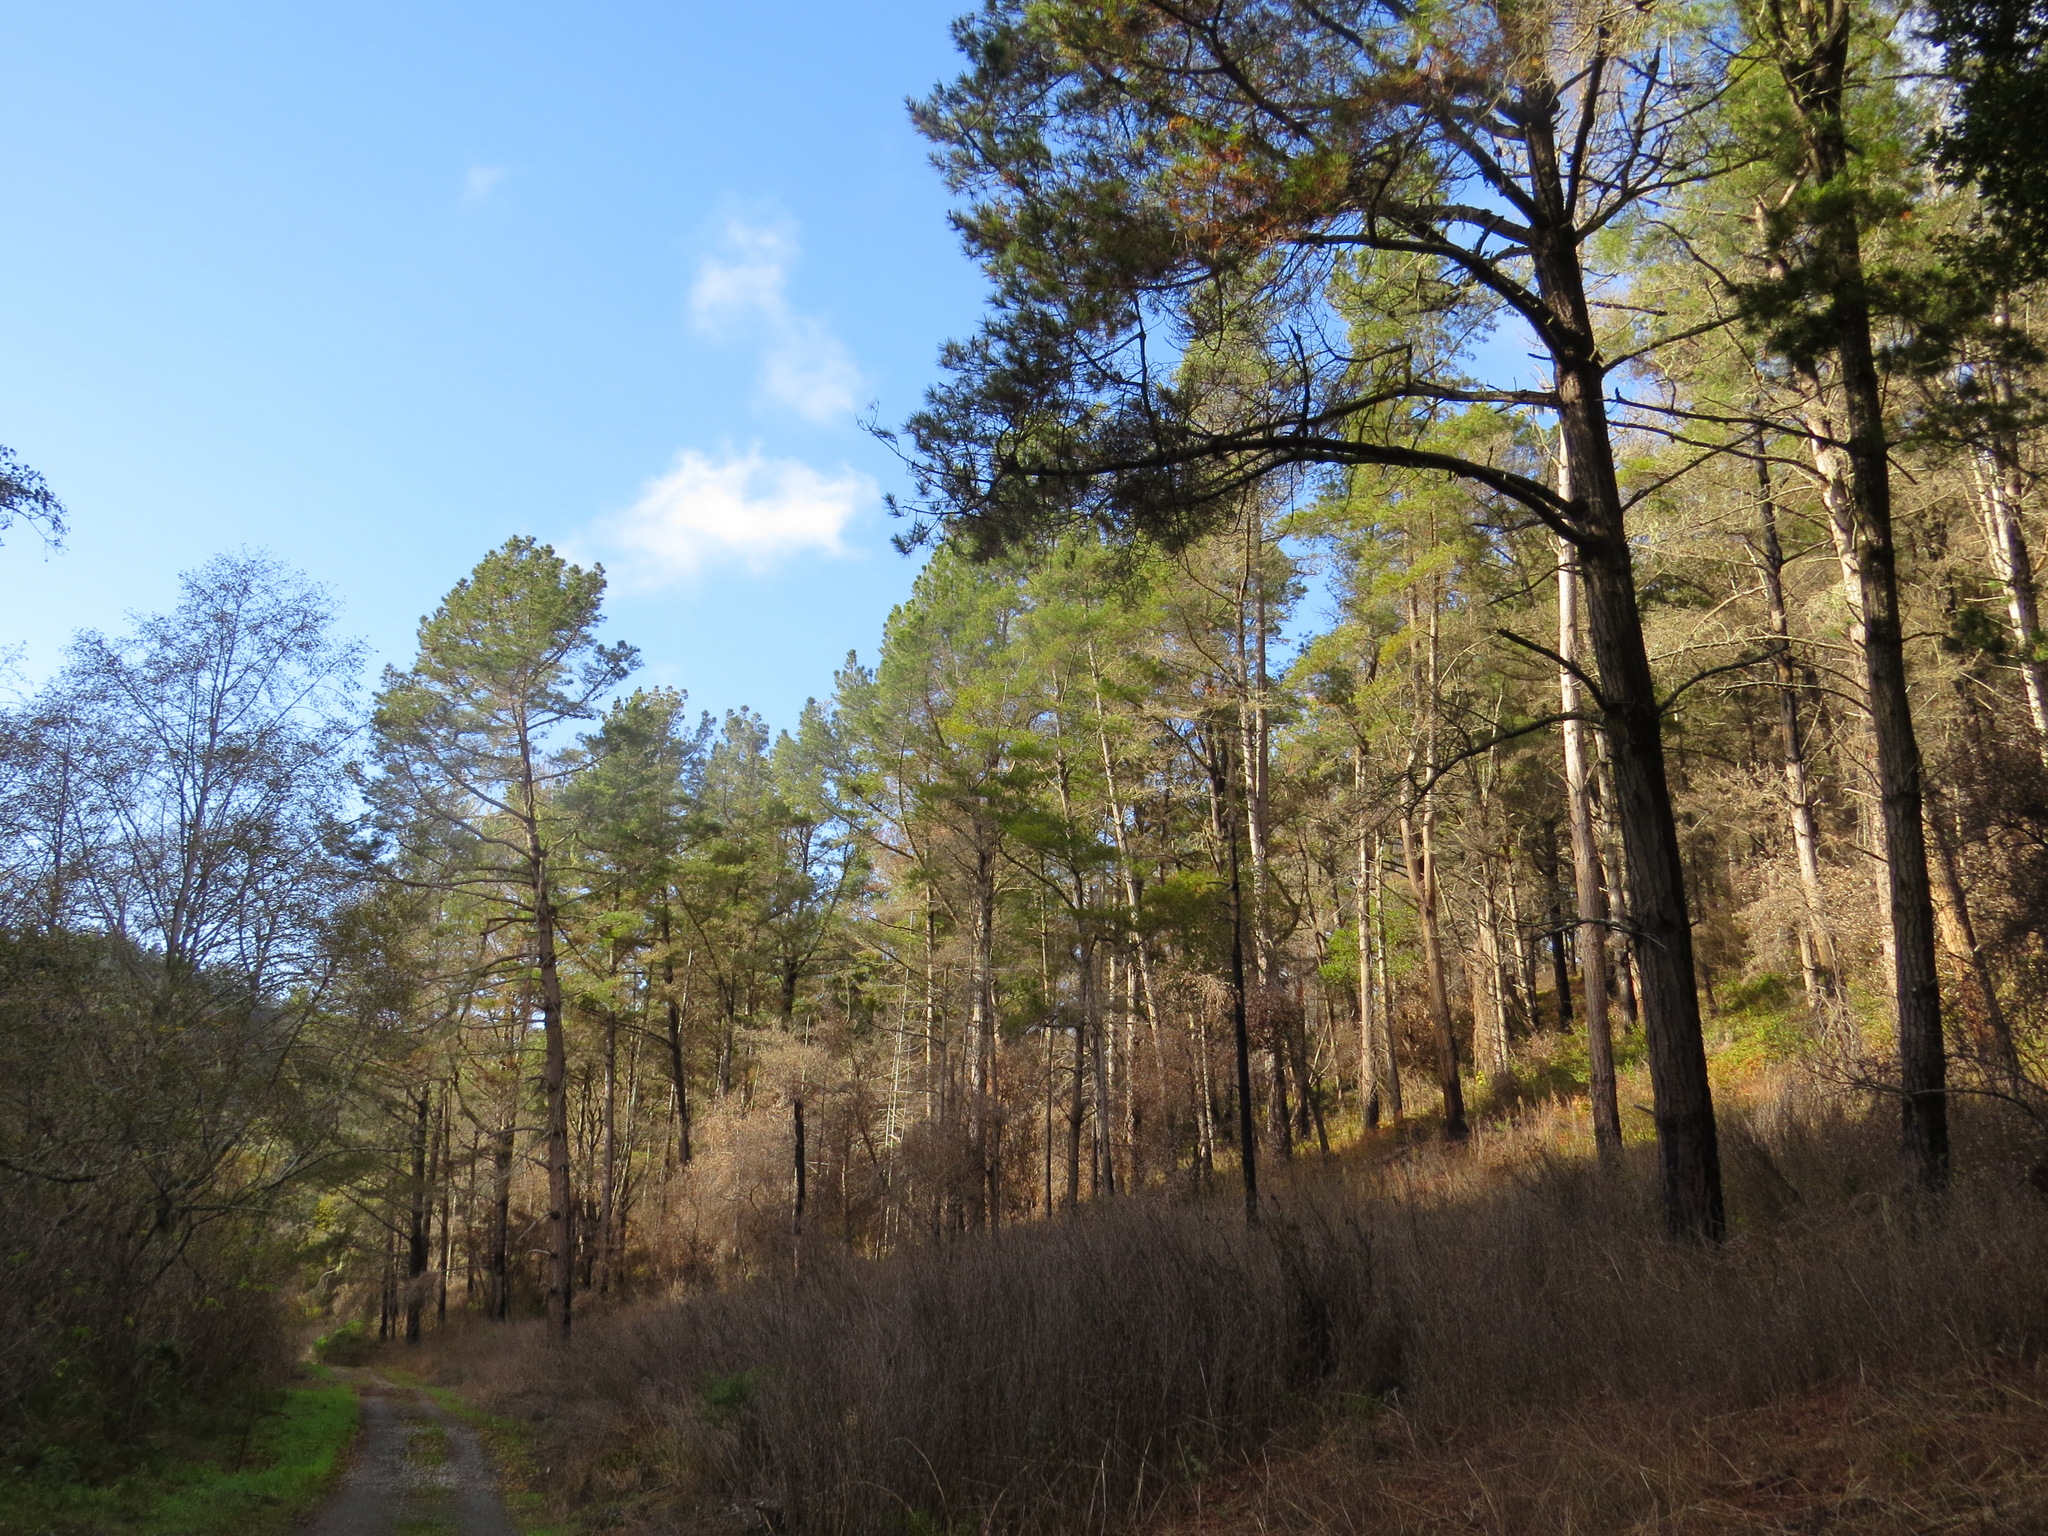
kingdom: Plantae
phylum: Tracheophyta
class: Pinopsida
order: Pinales
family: Pinaceae
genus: Pinus
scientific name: Pinus radiata
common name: Monterey pine
